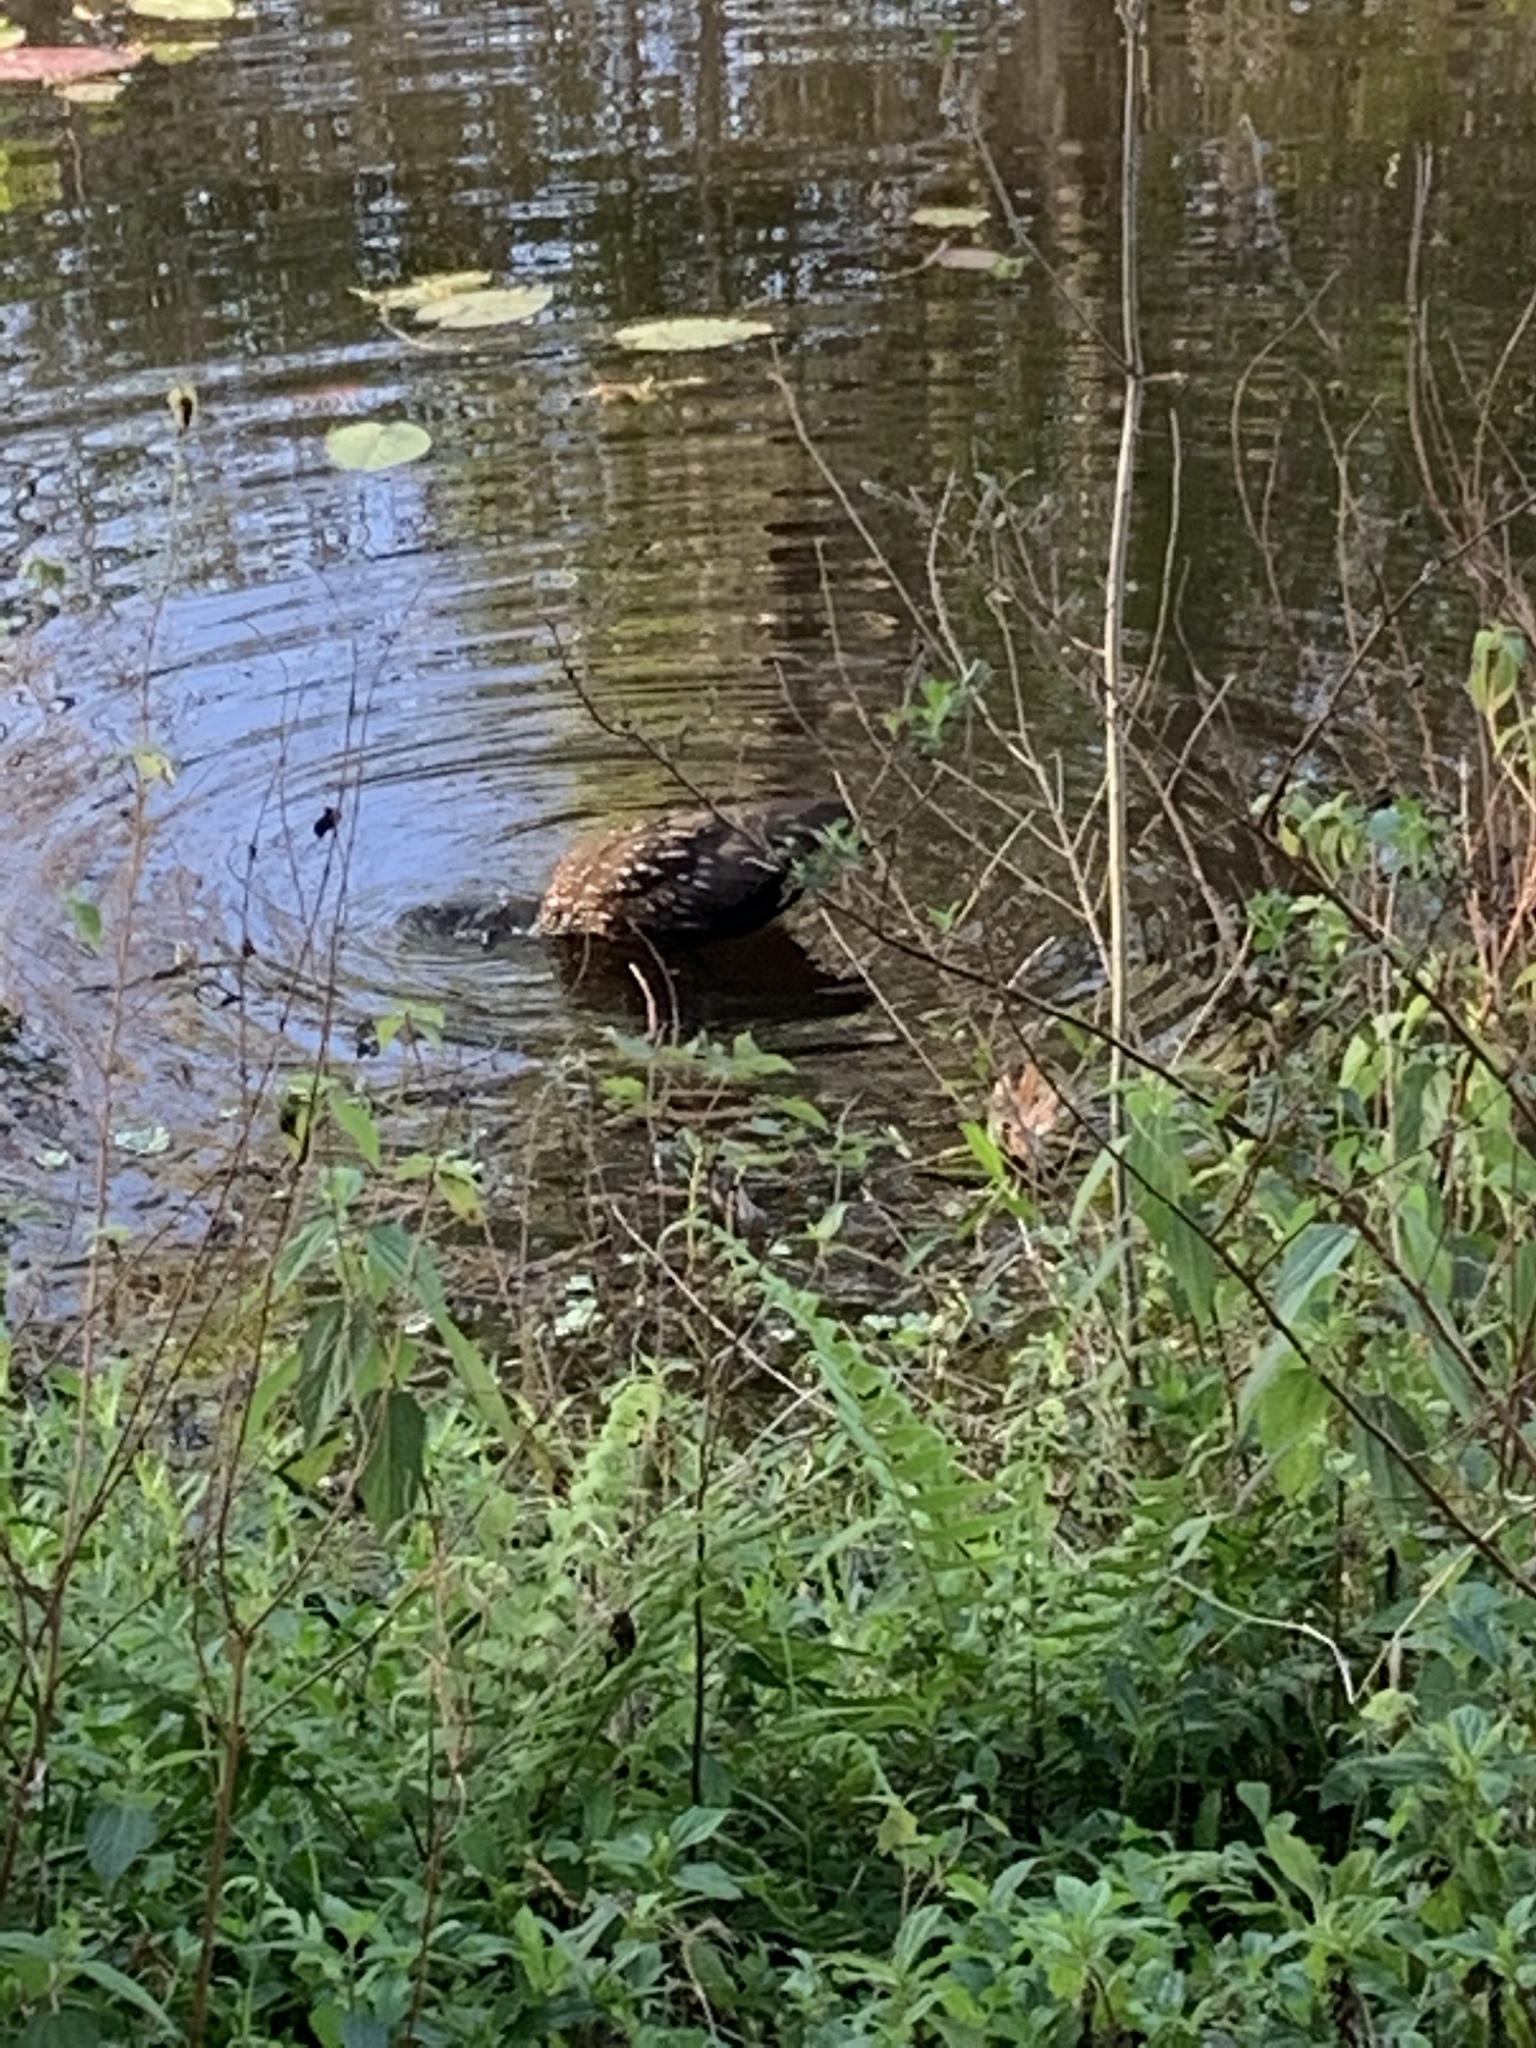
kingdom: Animalia
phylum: Chordata
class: Aves
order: Gruiformes
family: Aramidae
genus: Aramus
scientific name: Aramus guarauna
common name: Limpkin
